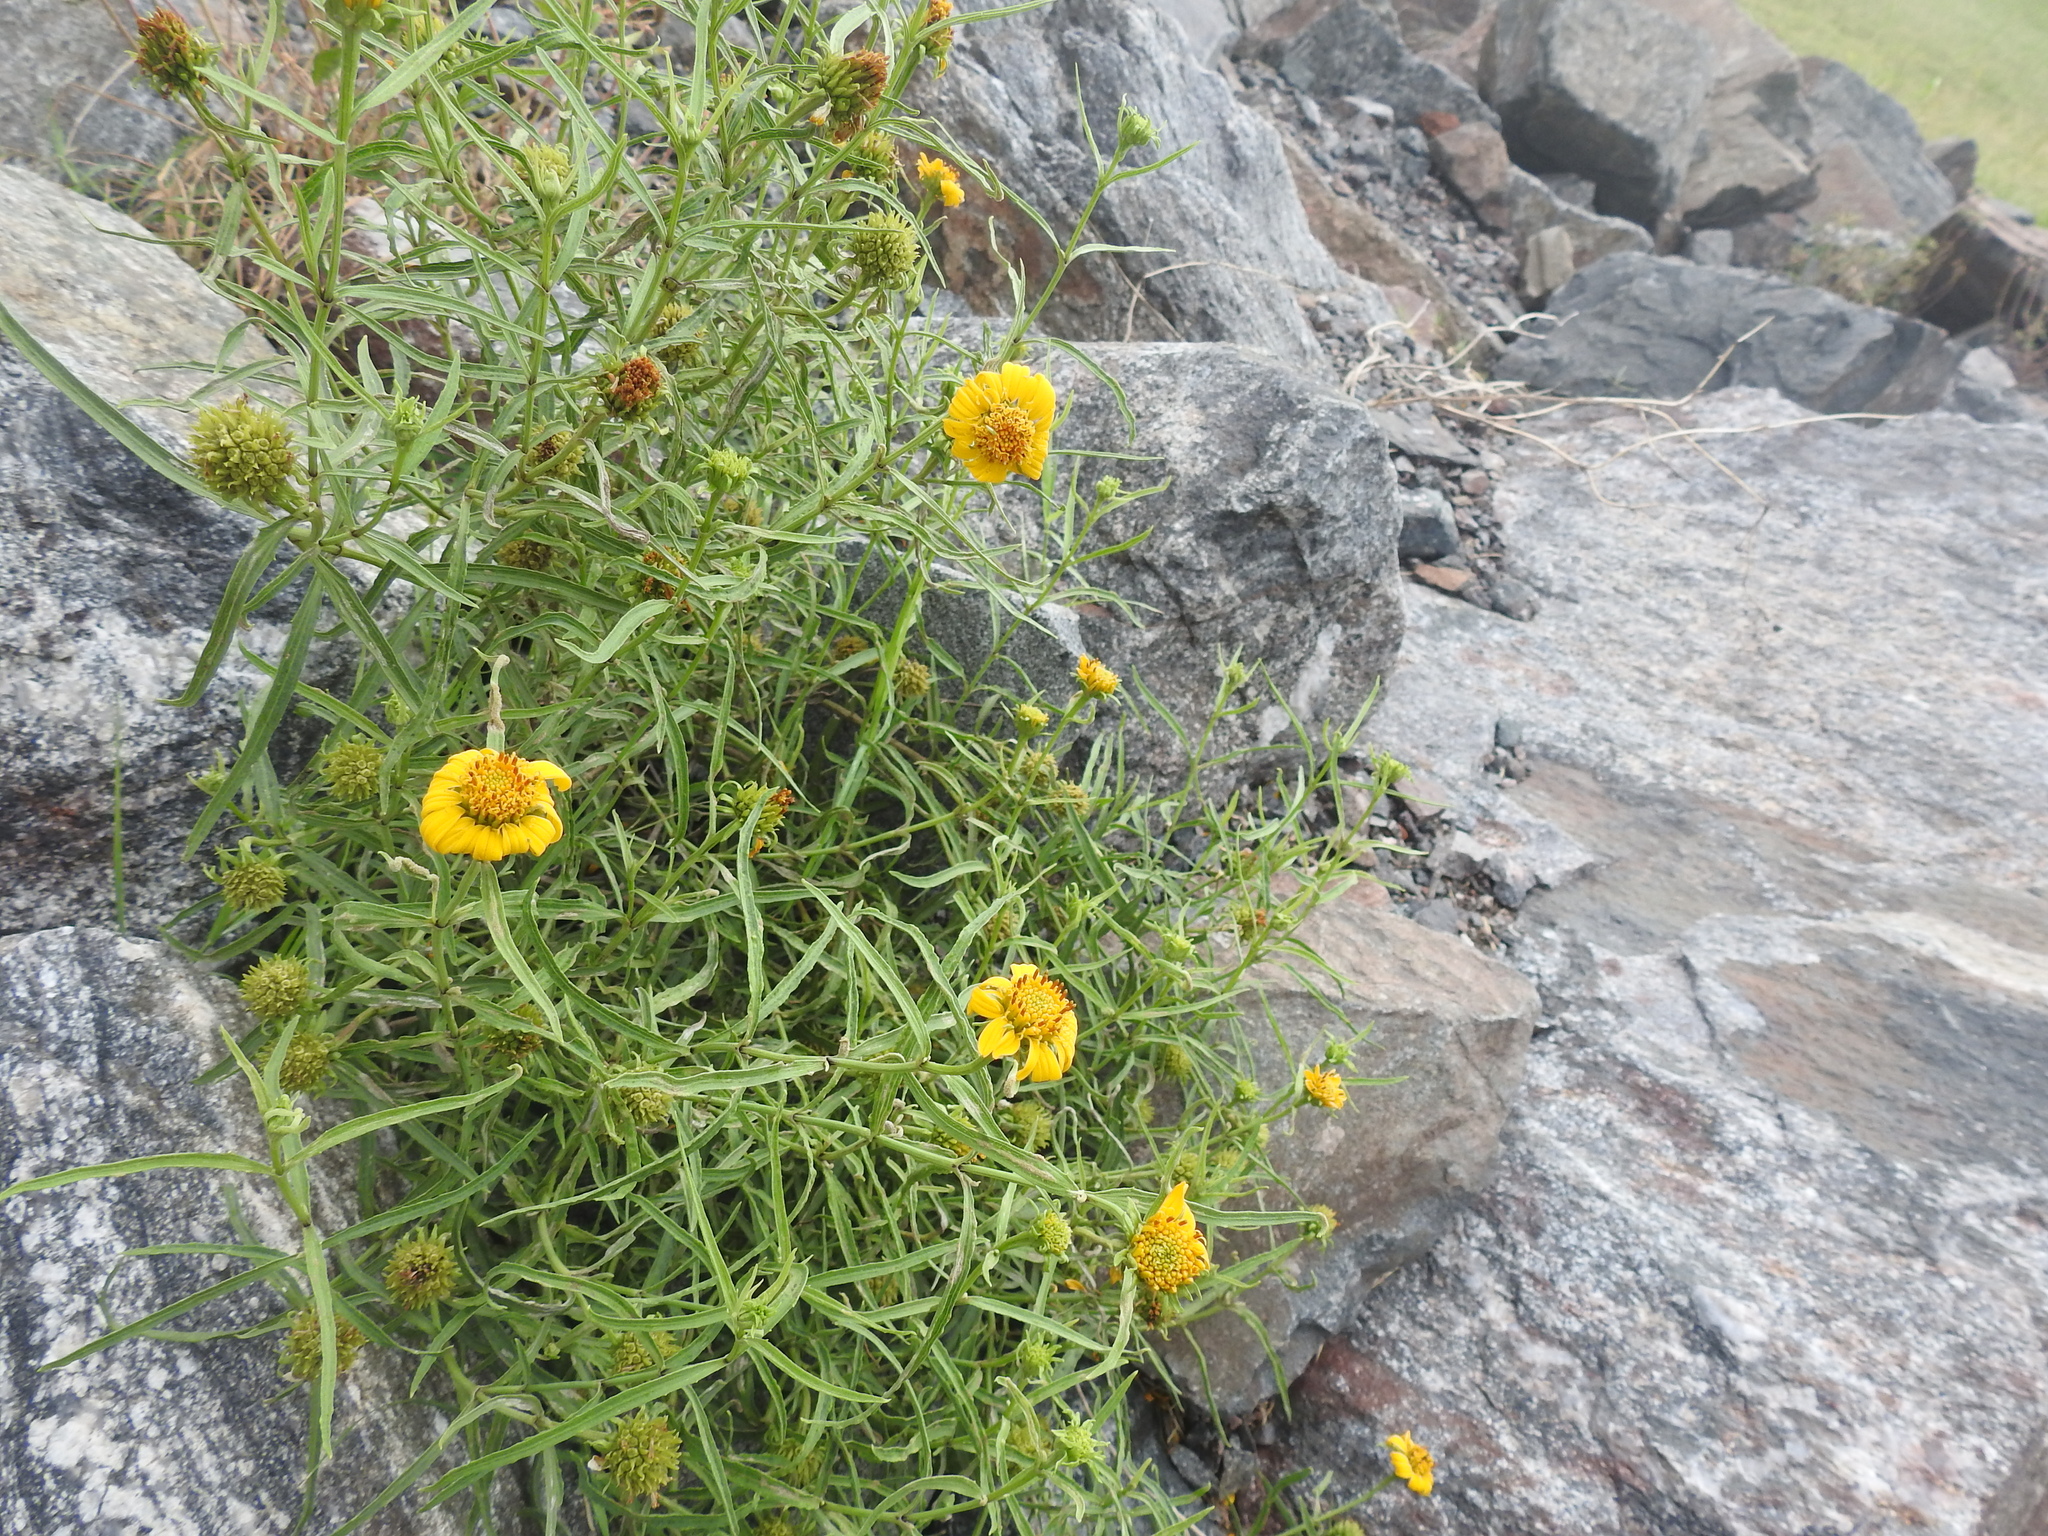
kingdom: Plantae
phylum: Tracheophyta
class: Magnoliopsida
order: Asterales
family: Asteraceae
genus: Pascalia
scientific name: Pascalia glauca
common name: Beach creeping oxeye
